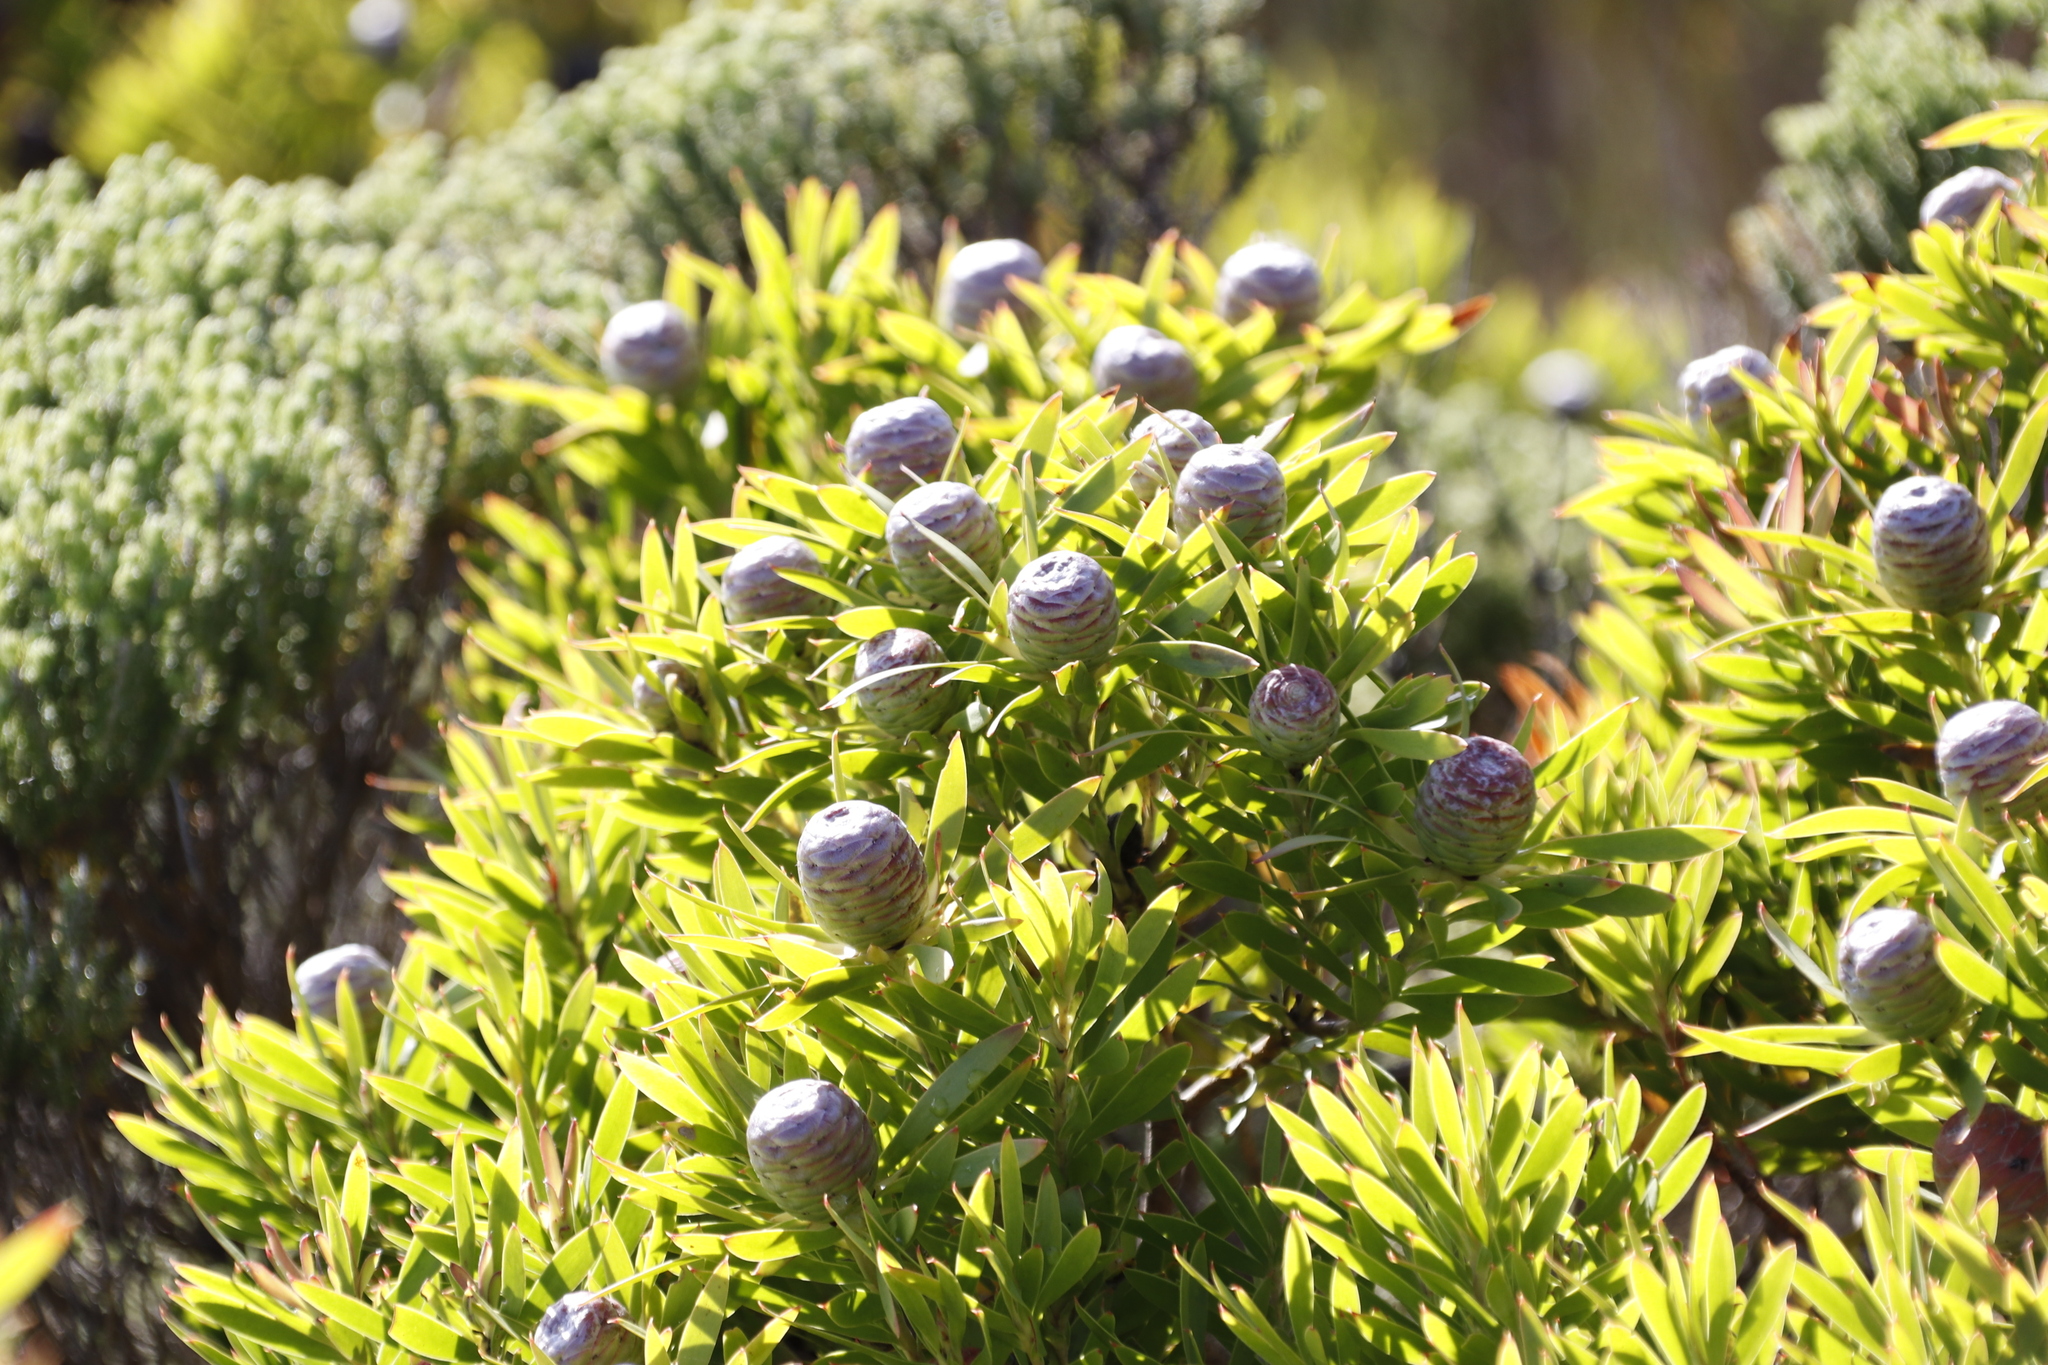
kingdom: Plantae
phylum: Tracheophyta
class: Magnoliopsida
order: Proteales
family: Proteaceae
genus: Leucadendron
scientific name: Leucadendron coniferum
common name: Dune conebush
